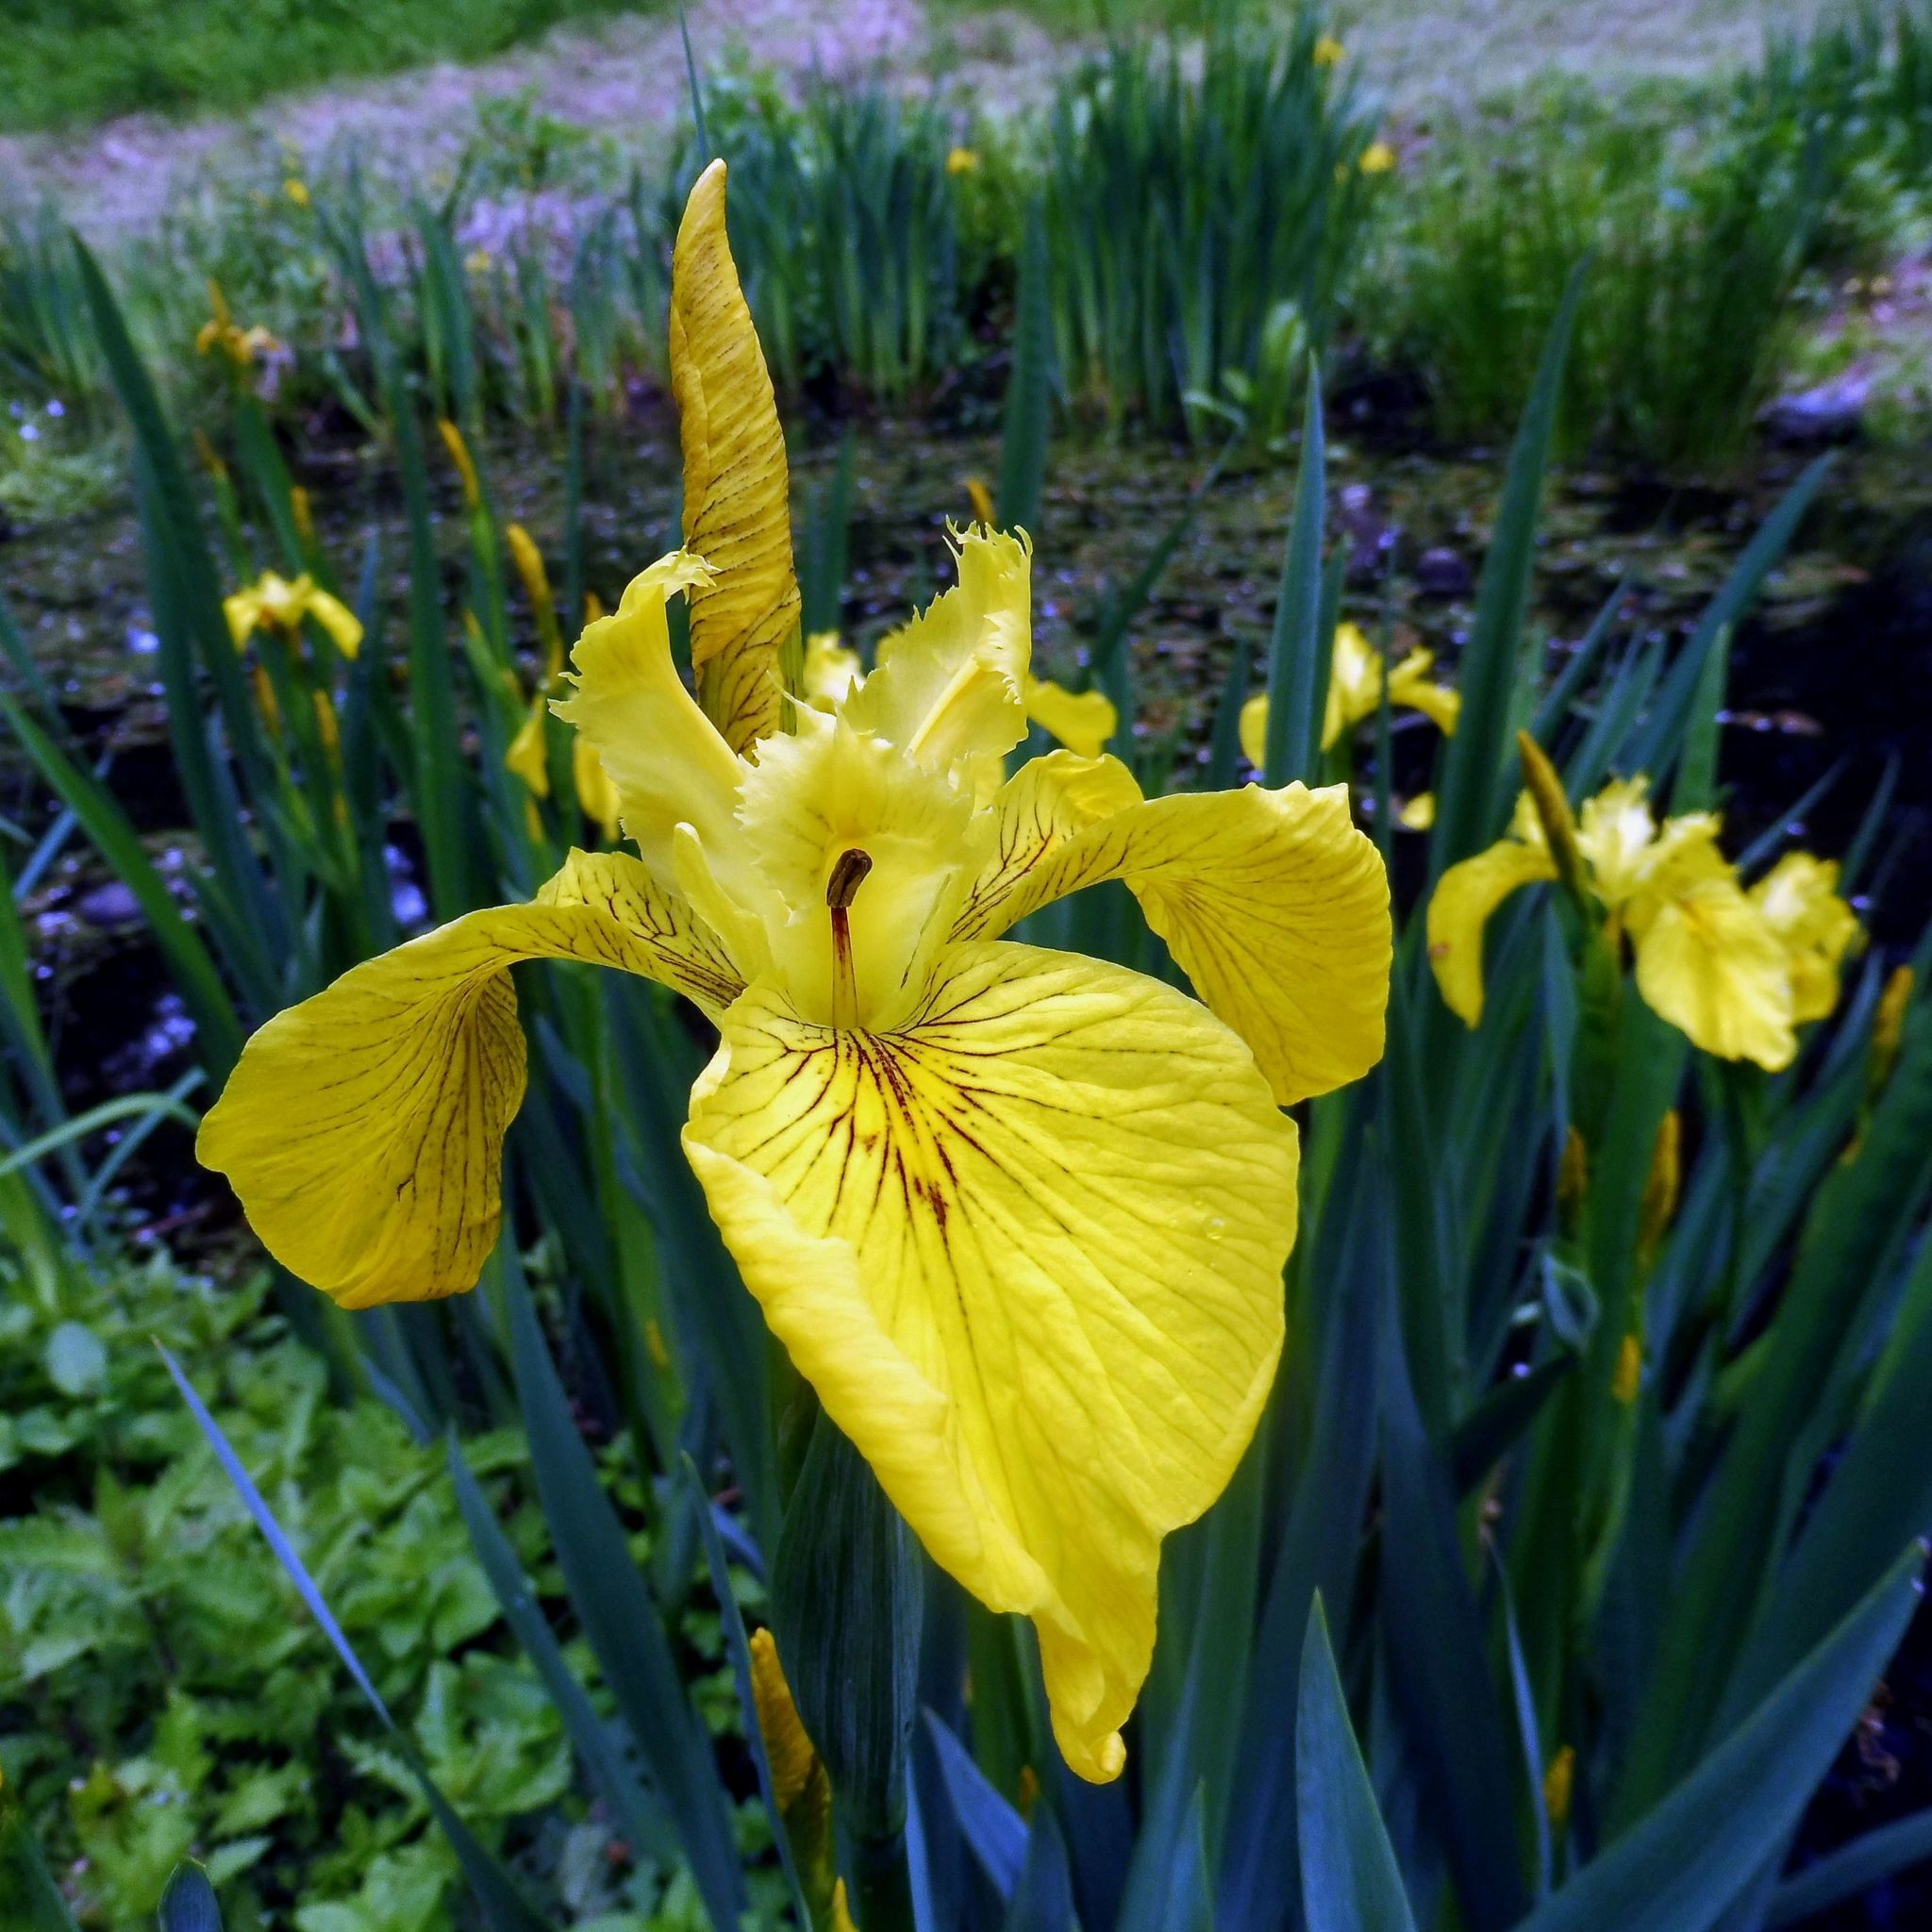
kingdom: Plantae
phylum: Tracheophyta
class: Liliopsida
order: Asparagales
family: Iridaceae
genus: Iris
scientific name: Iris pseudacorus
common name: Yellow flag
